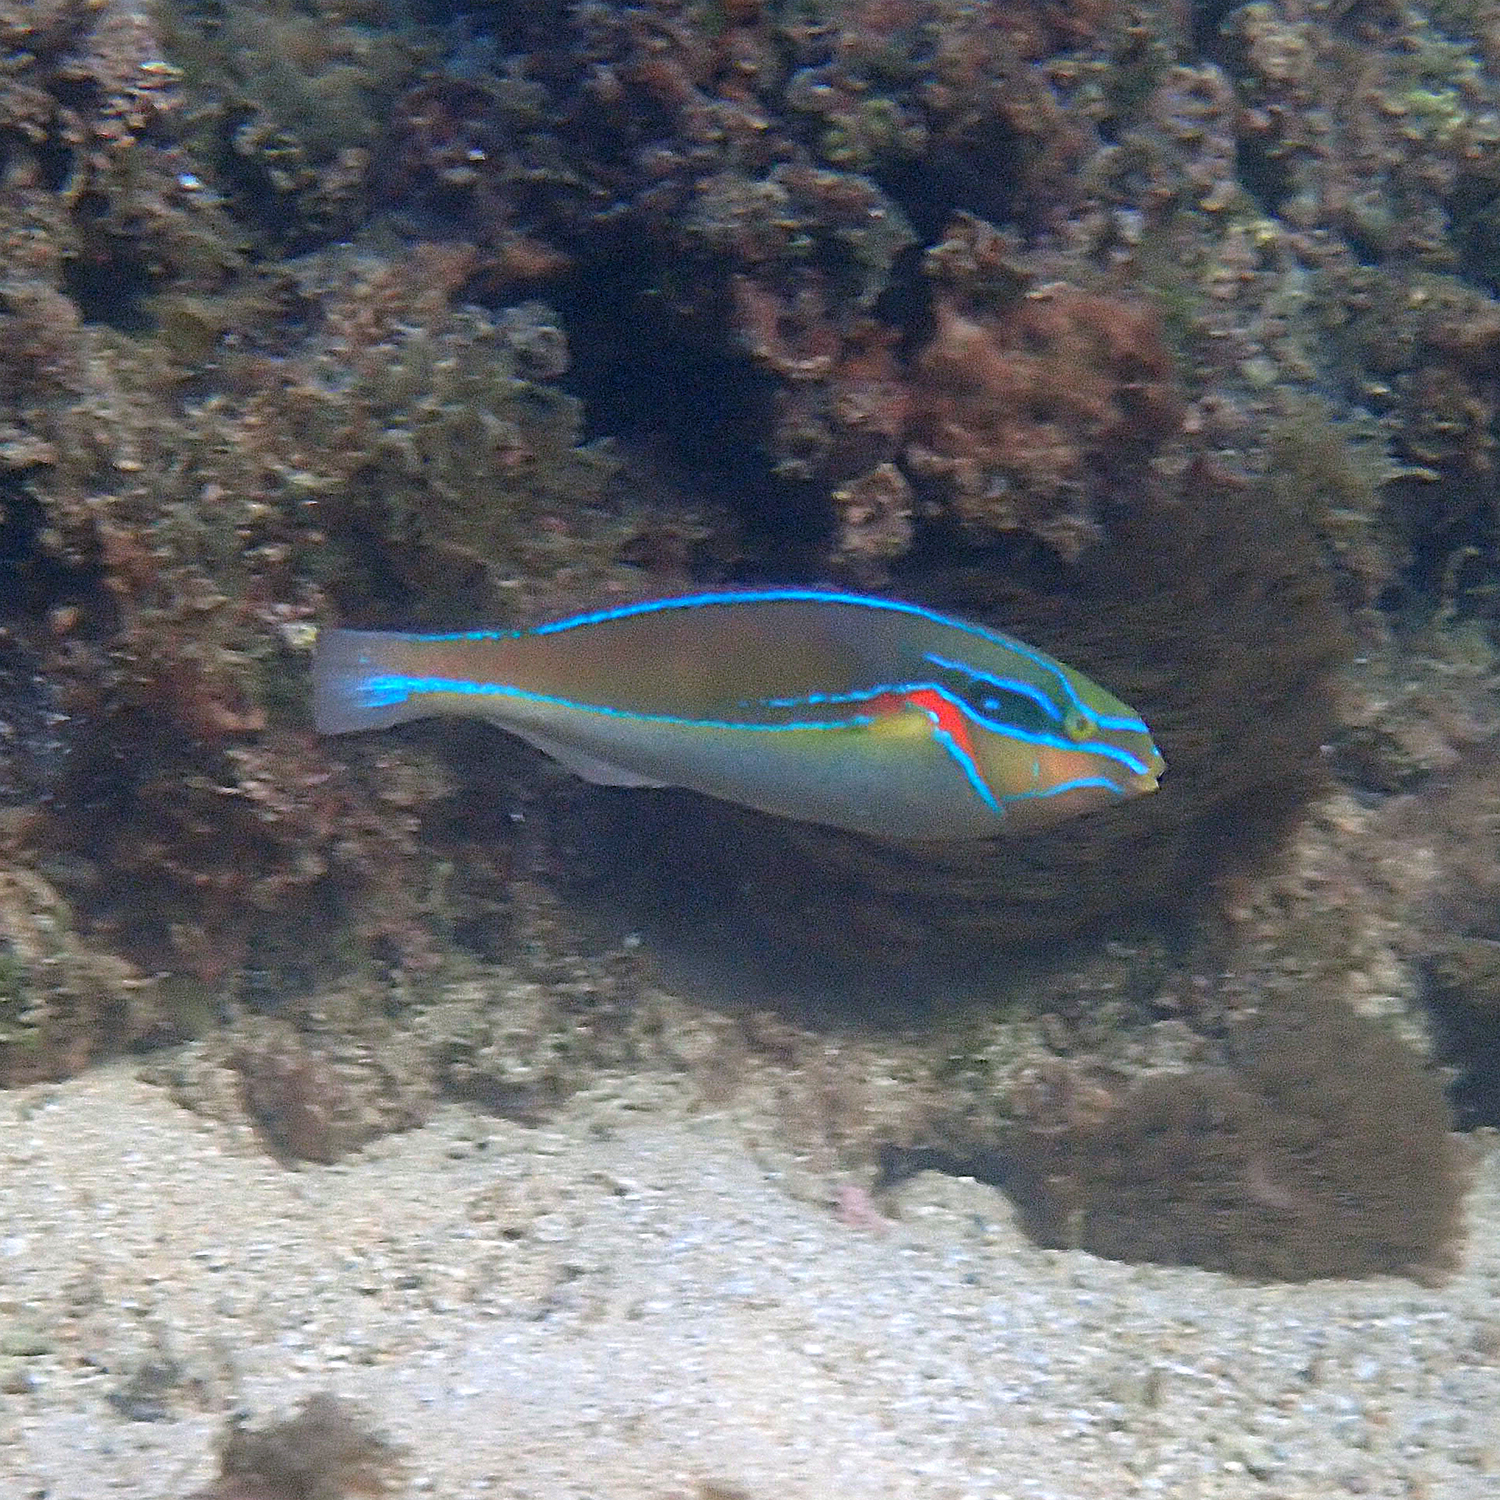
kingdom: Animalia
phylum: Chordata
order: Perciformes
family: Labridae
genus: Stethojulis
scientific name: Stethojulis bandanensis
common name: Red shoulder wrasse
